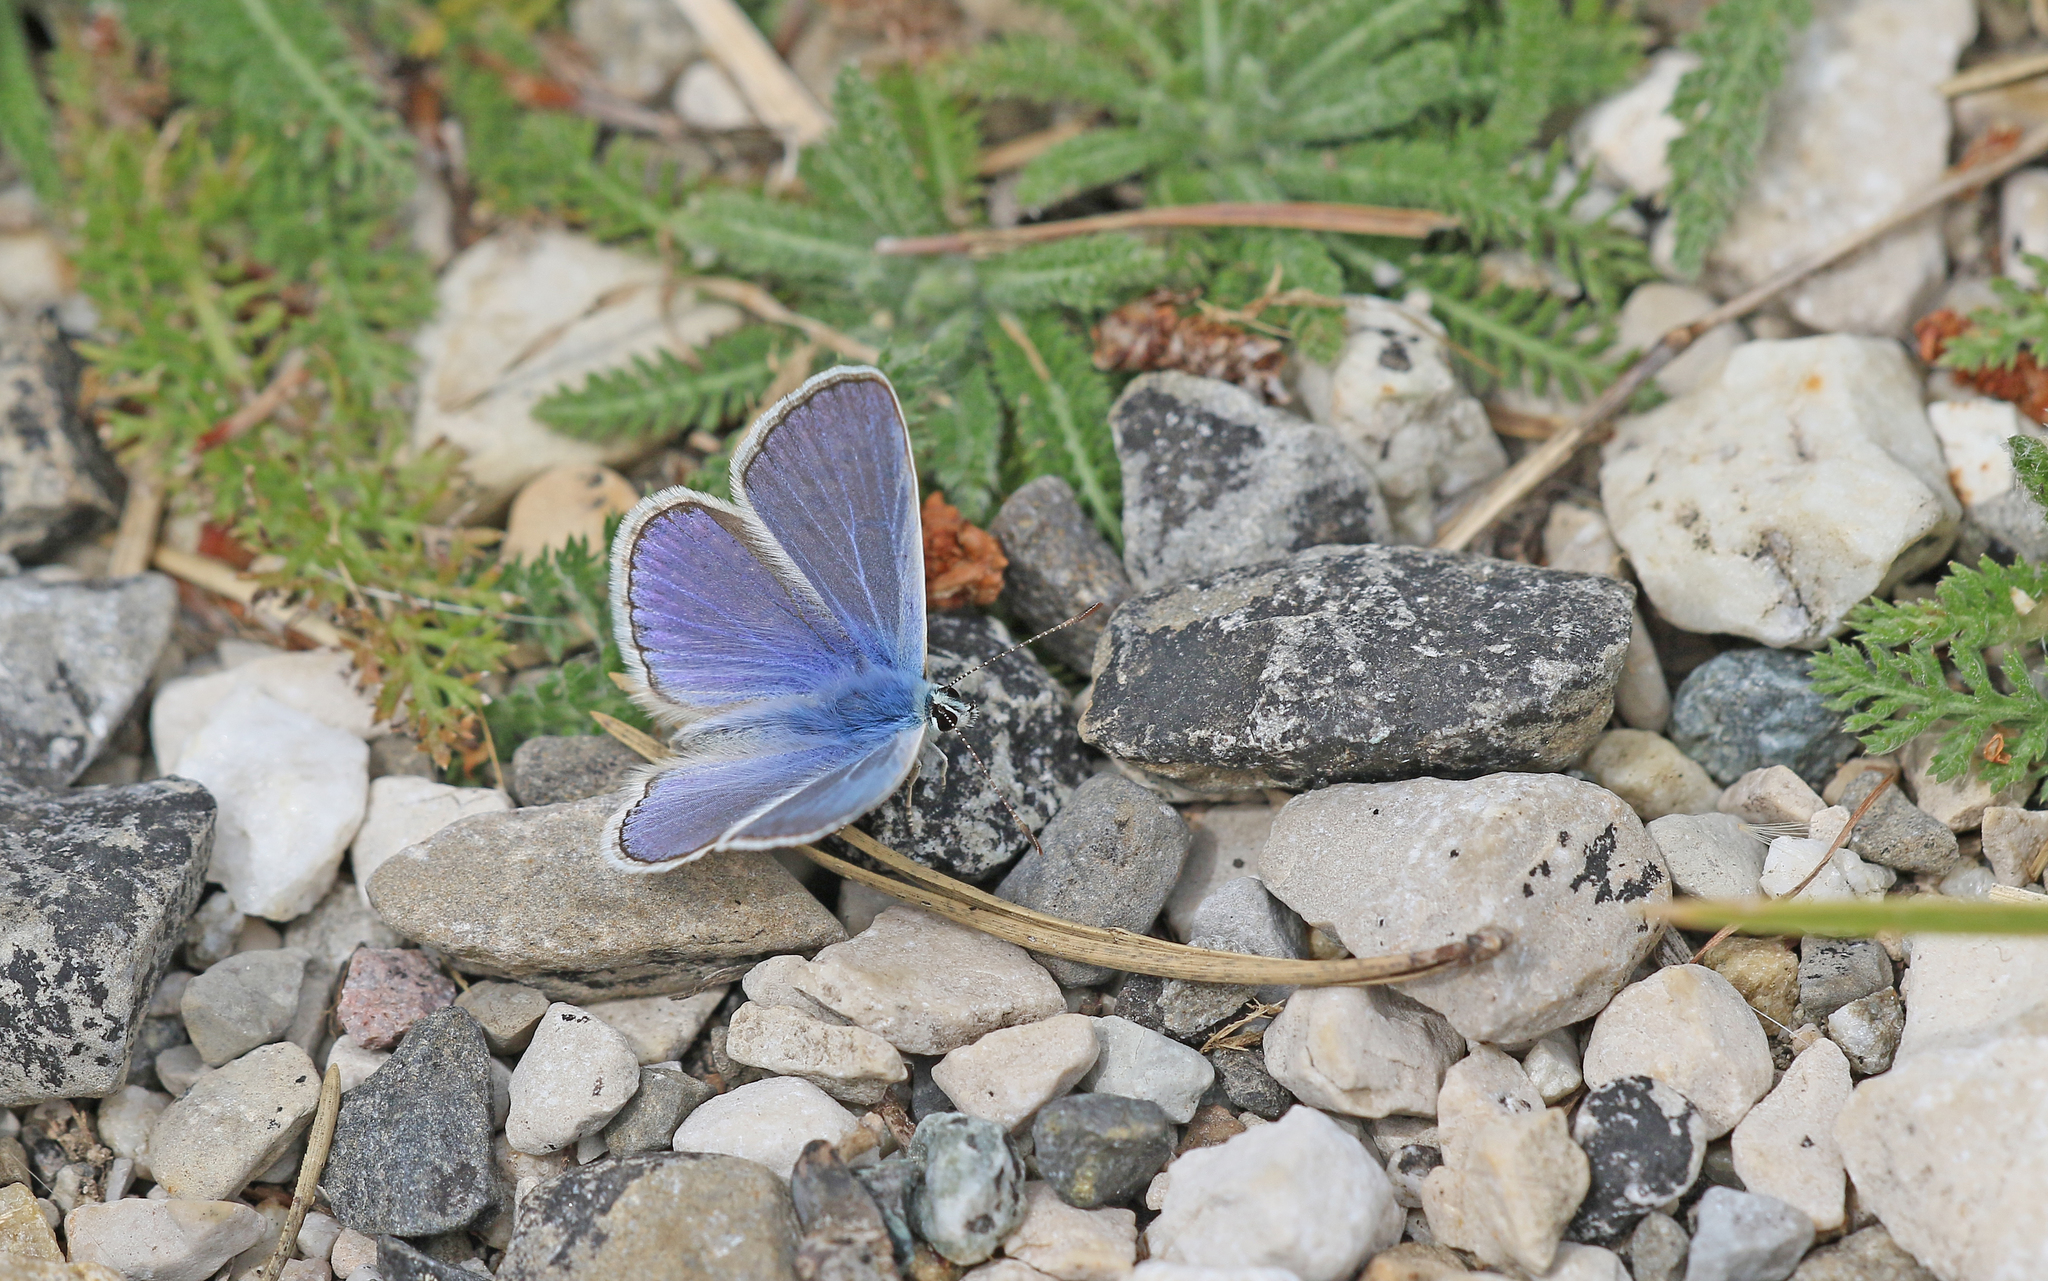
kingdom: Animalia
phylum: Arthropoda
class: Insecta
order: Lepidoptera
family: Lycaenidae
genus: Polyommatus
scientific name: Polyommatus icarus
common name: Common blue
